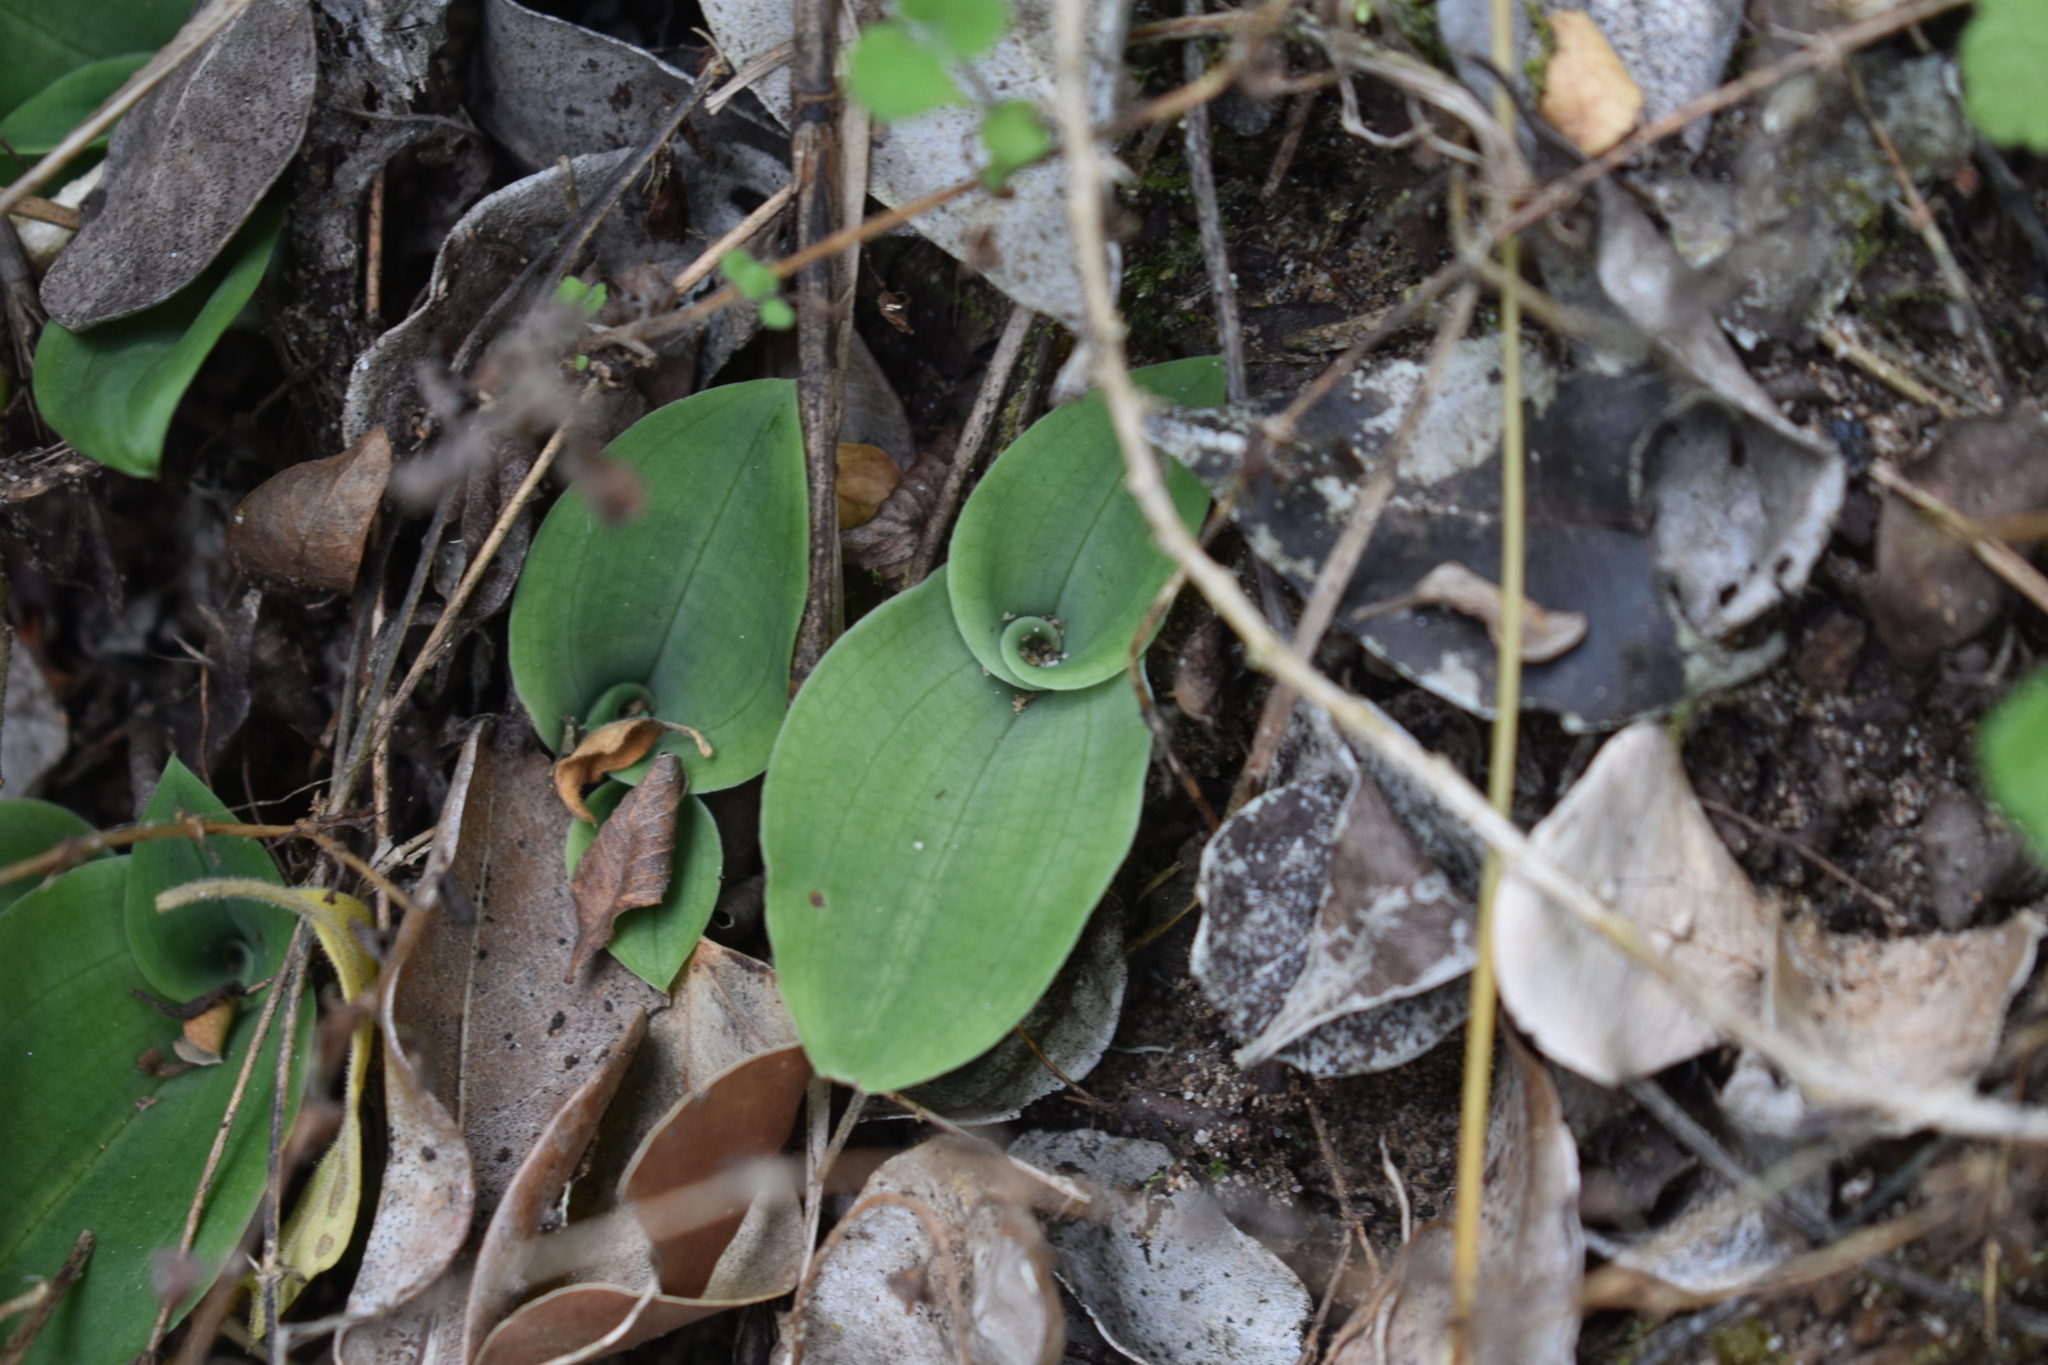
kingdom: Plantae
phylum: Tracheophyta
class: Liliopsida
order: Asparagales
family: Orchidaceae
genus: Habenaria
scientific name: Habenaria arenaria
